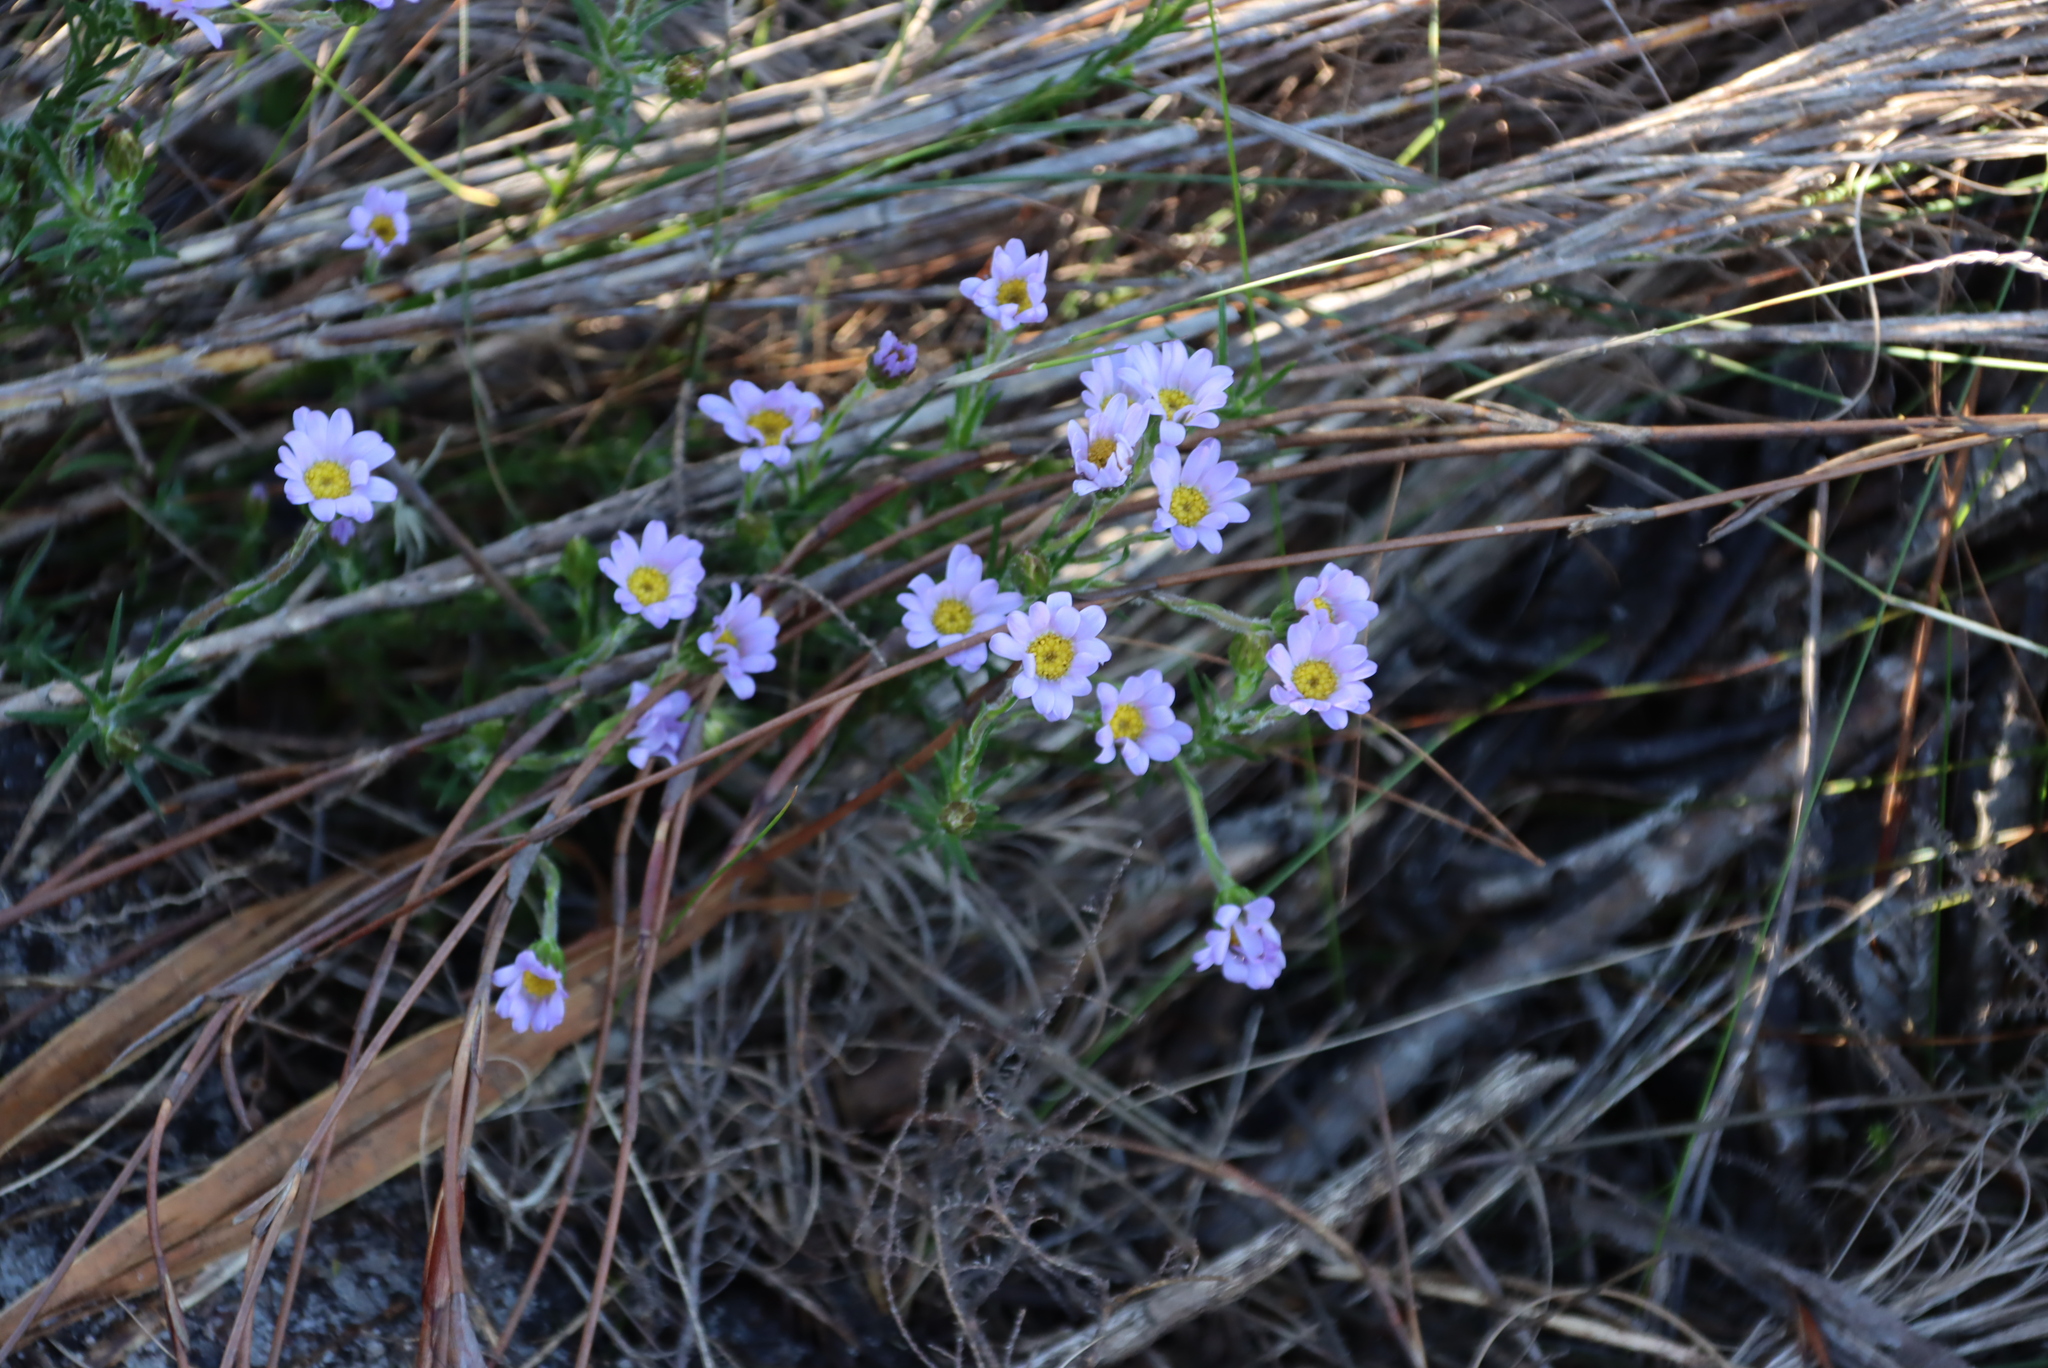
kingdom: Plantae
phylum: Tracheophyta
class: Magnoliopsida
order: Asterales
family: Asteraceae
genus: Zyrphelis
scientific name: Zyrphelis taxifolia
